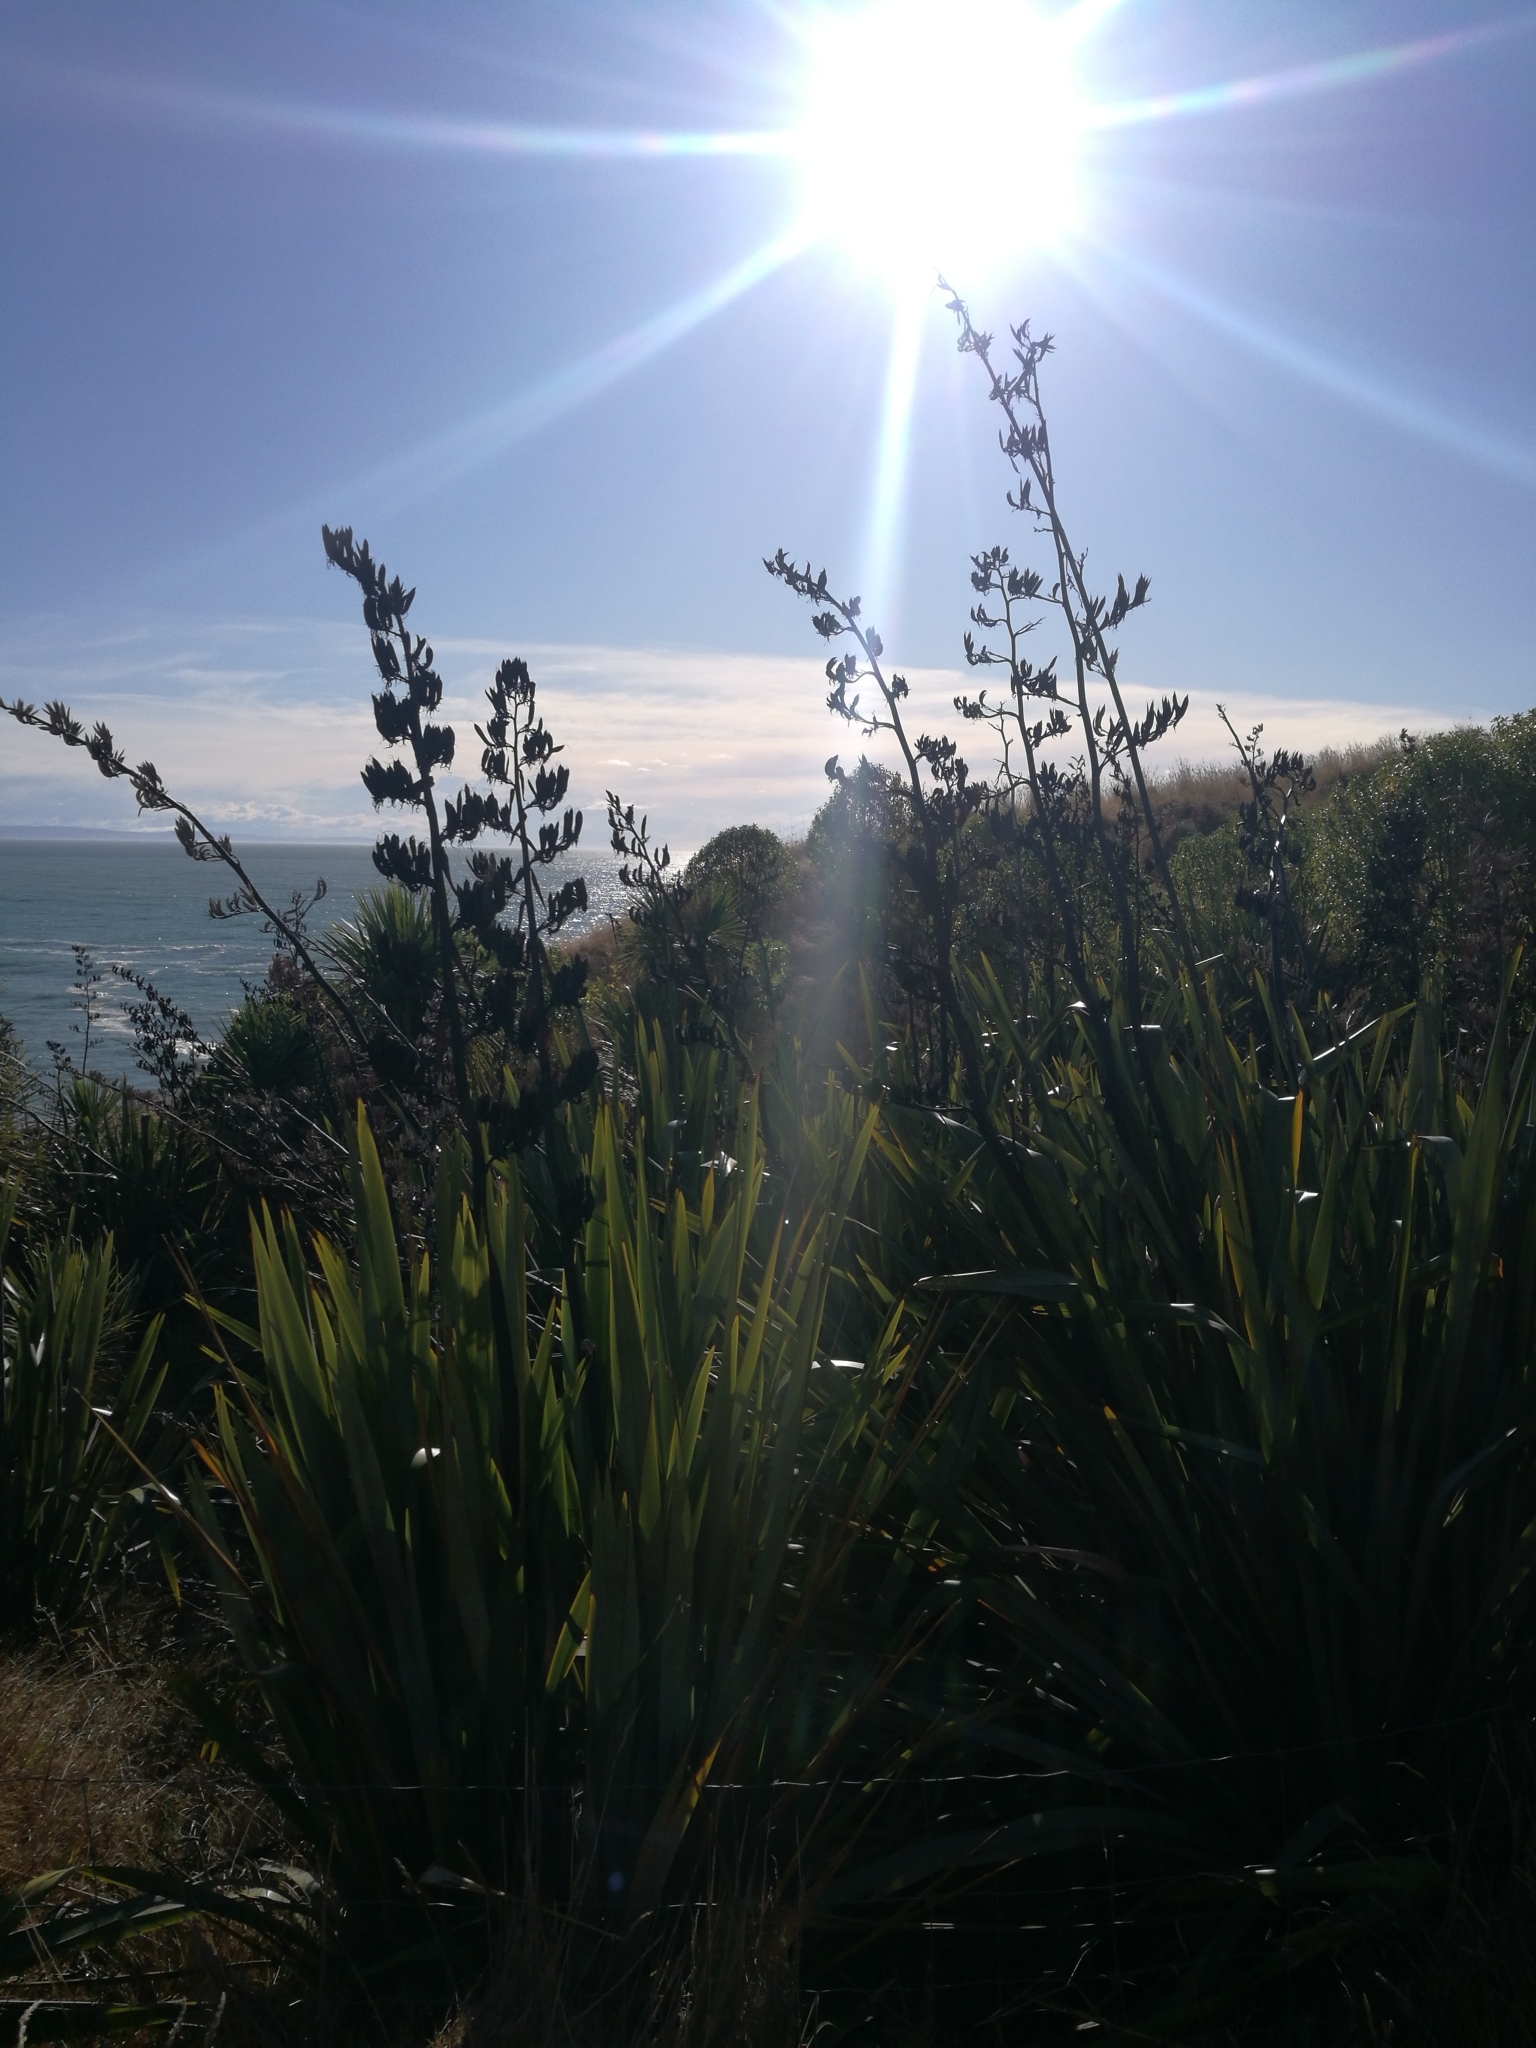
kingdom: Plantae
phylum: Tracheophyta
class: Liliopsida
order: Asparagales
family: Asphodelaceae
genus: Phormium
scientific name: Phormium tenax
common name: New zealand flax
